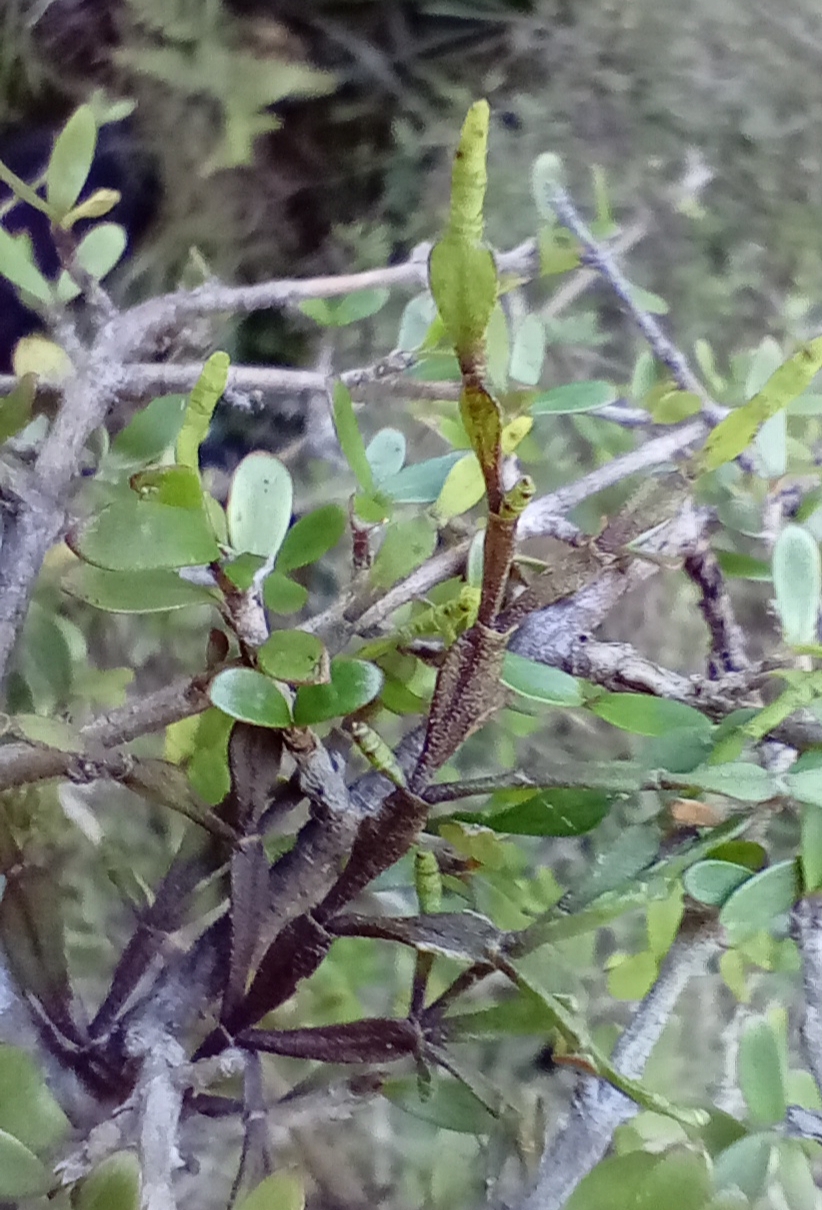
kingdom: Plantae
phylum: Tracheophyta
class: Magnoliopsida
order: Santalales
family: Viscaceae
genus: Korthalsella
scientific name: Korthalsella clavata
